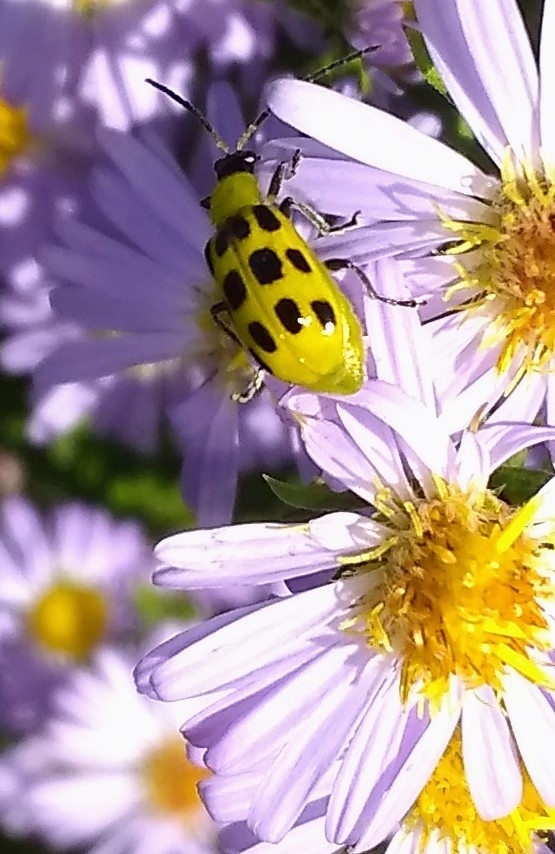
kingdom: Animalia
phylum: Arthropoda
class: Insecta
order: Coleoptera
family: Chrysomelidae
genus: Diabrotica
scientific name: Diabrotica undecimpunctata
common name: Spotted cucumber beetle
